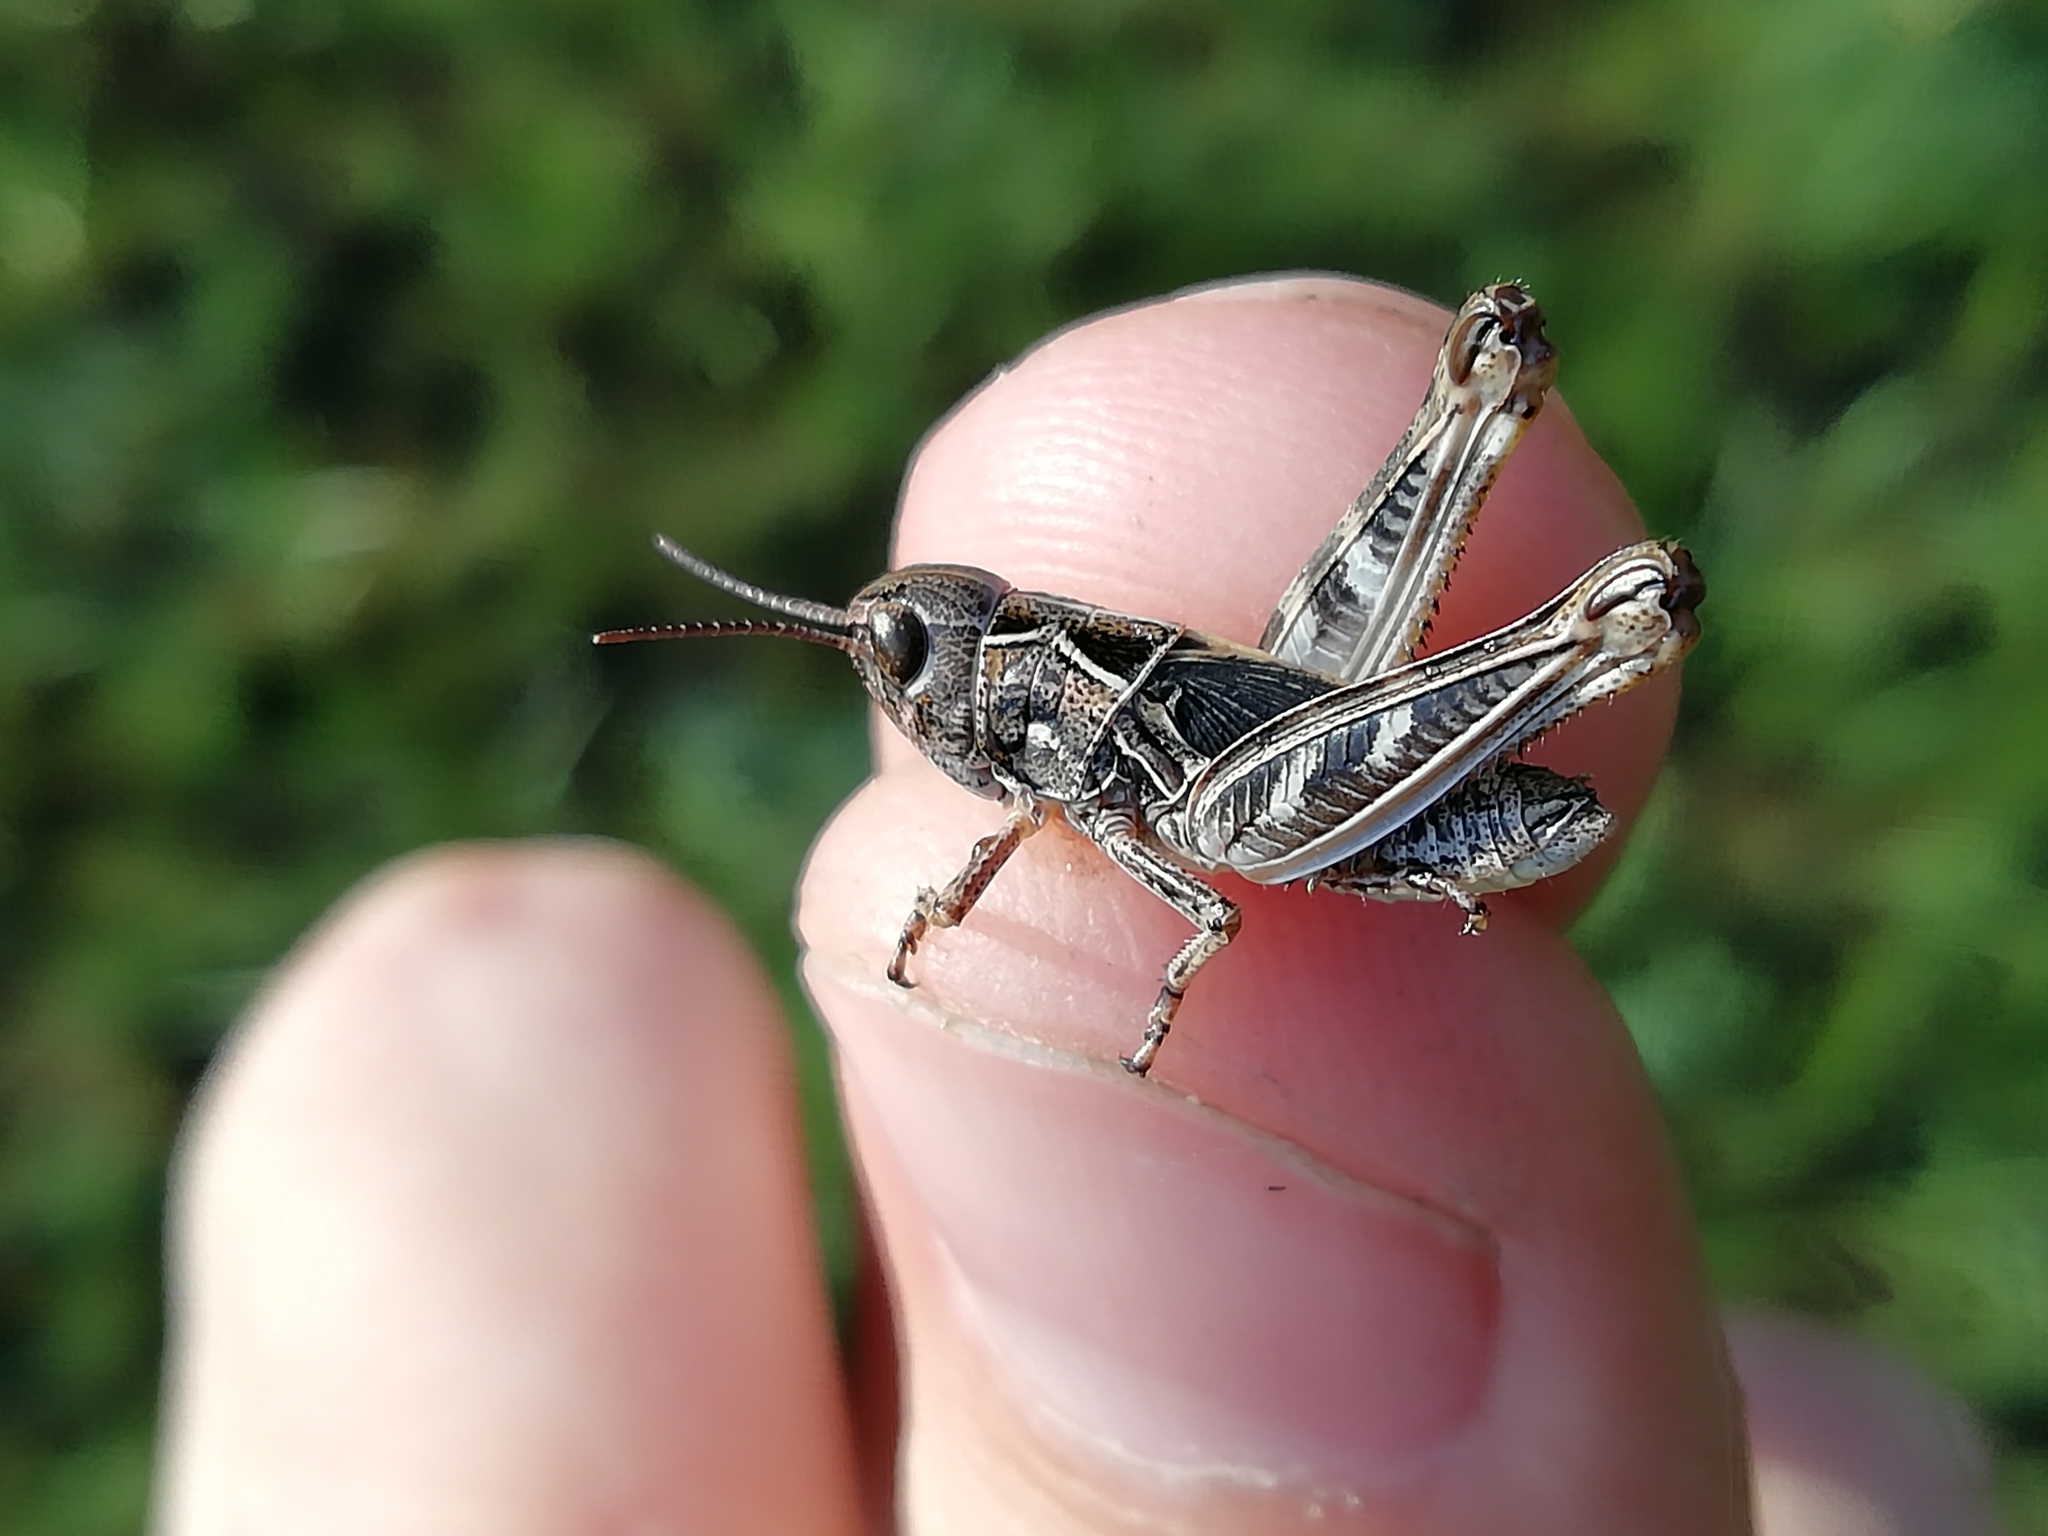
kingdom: Animalia
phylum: Arthropoda
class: Insecta
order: Orthoptera
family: Acrididae
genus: Arcyptera
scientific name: Arcyptera microptera
